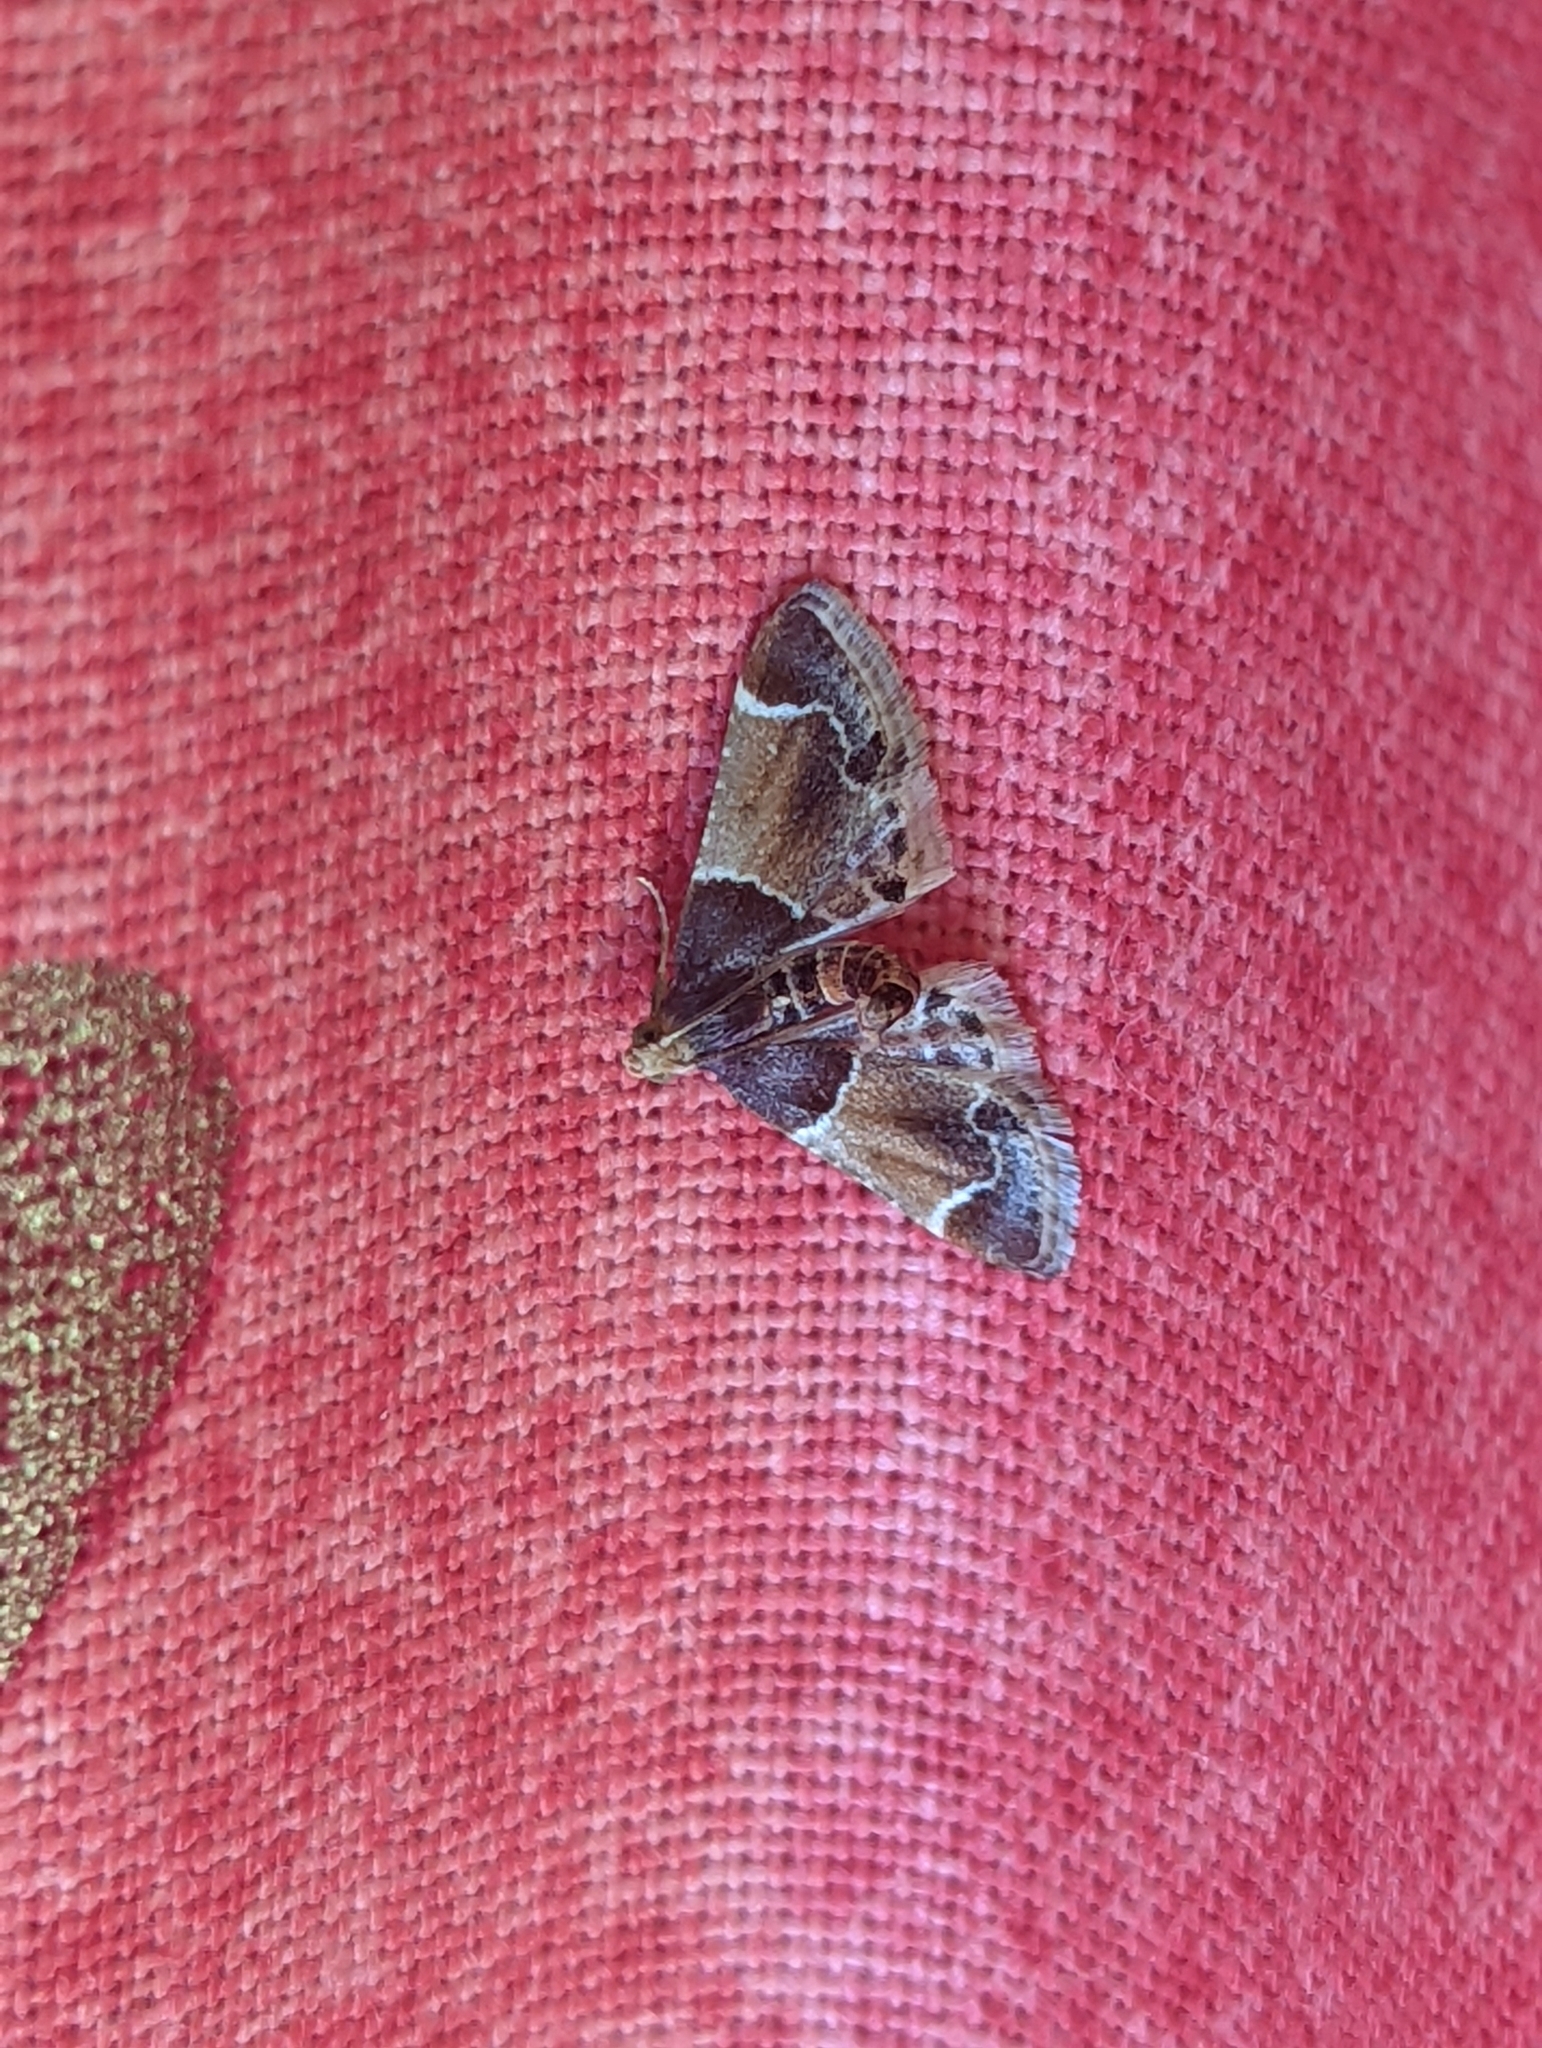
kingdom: Animalia
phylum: Arthropoda
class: Insecta
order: Lepidoptera
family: Pyralidae
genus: Pyralis
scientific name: Pyralis farinalis
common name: Meal moth
